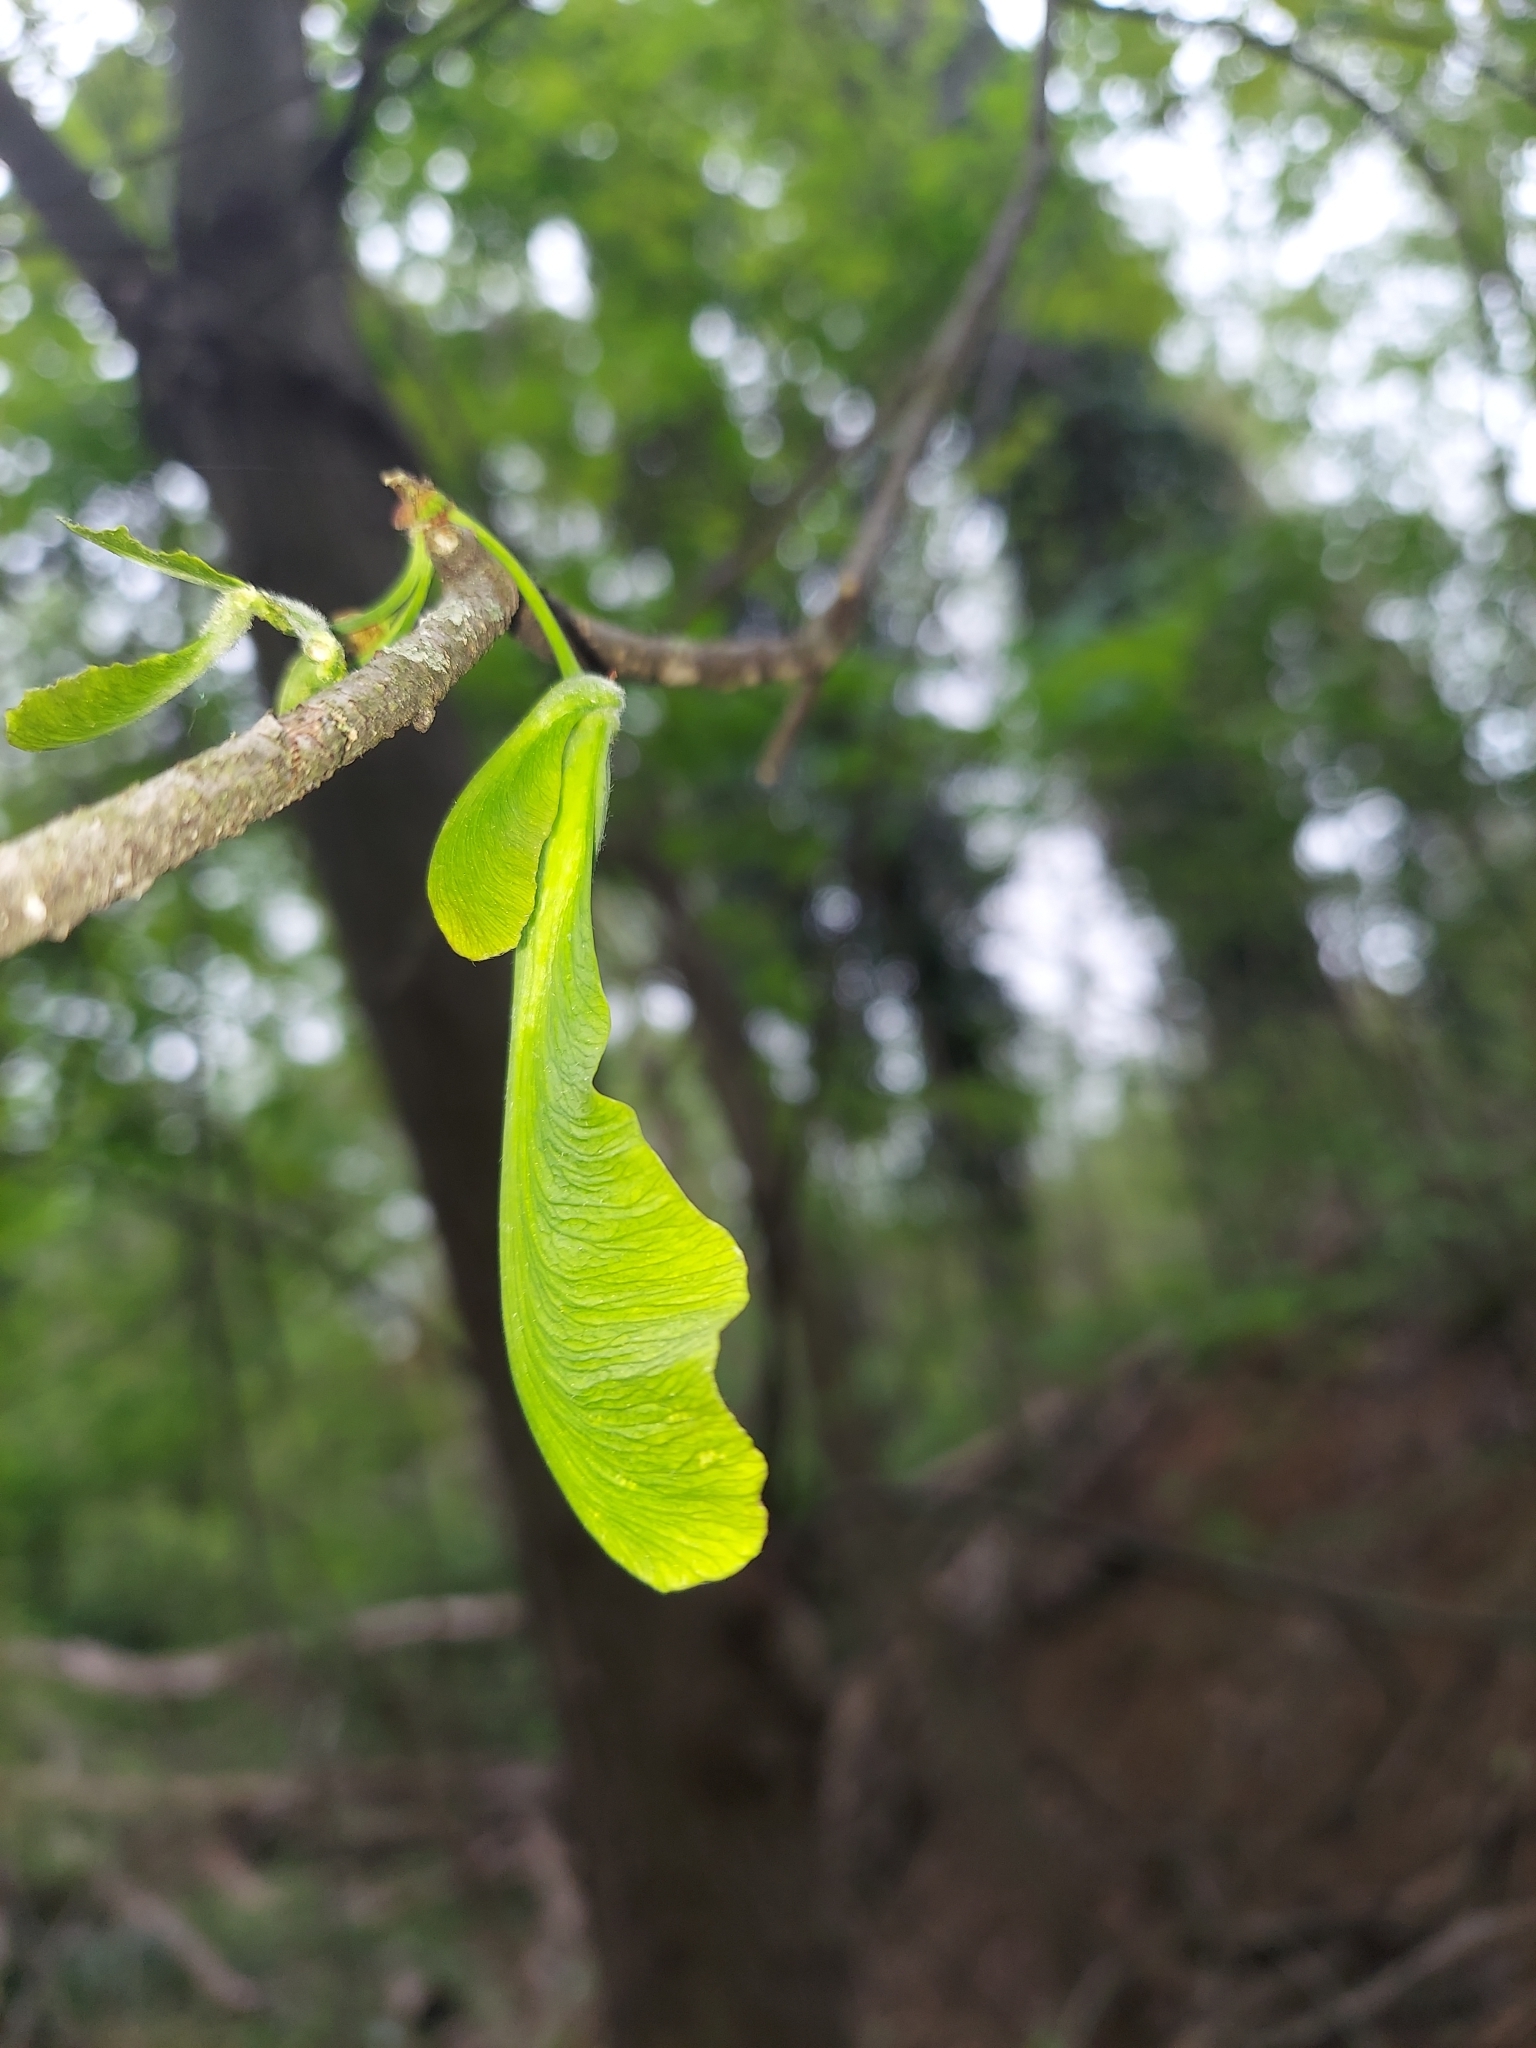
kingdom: Plantae
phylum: Tracheophyta
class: Magnoliopsida
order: Sapindales
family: Sapindaceae
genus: Acer
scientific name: Acer saccharinum
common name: Silver maple
